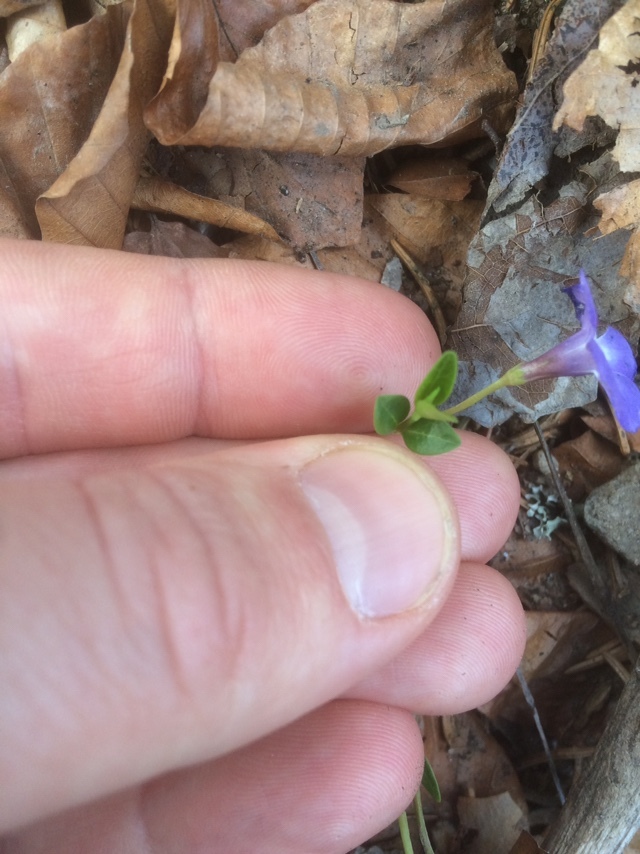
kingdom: Plantae
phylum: Tracheophyta
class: Magnoliopsida
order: Gentianales
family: Apocynaceae
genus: Vinca
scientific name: Vinca minor
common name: Lesser periwinkle
